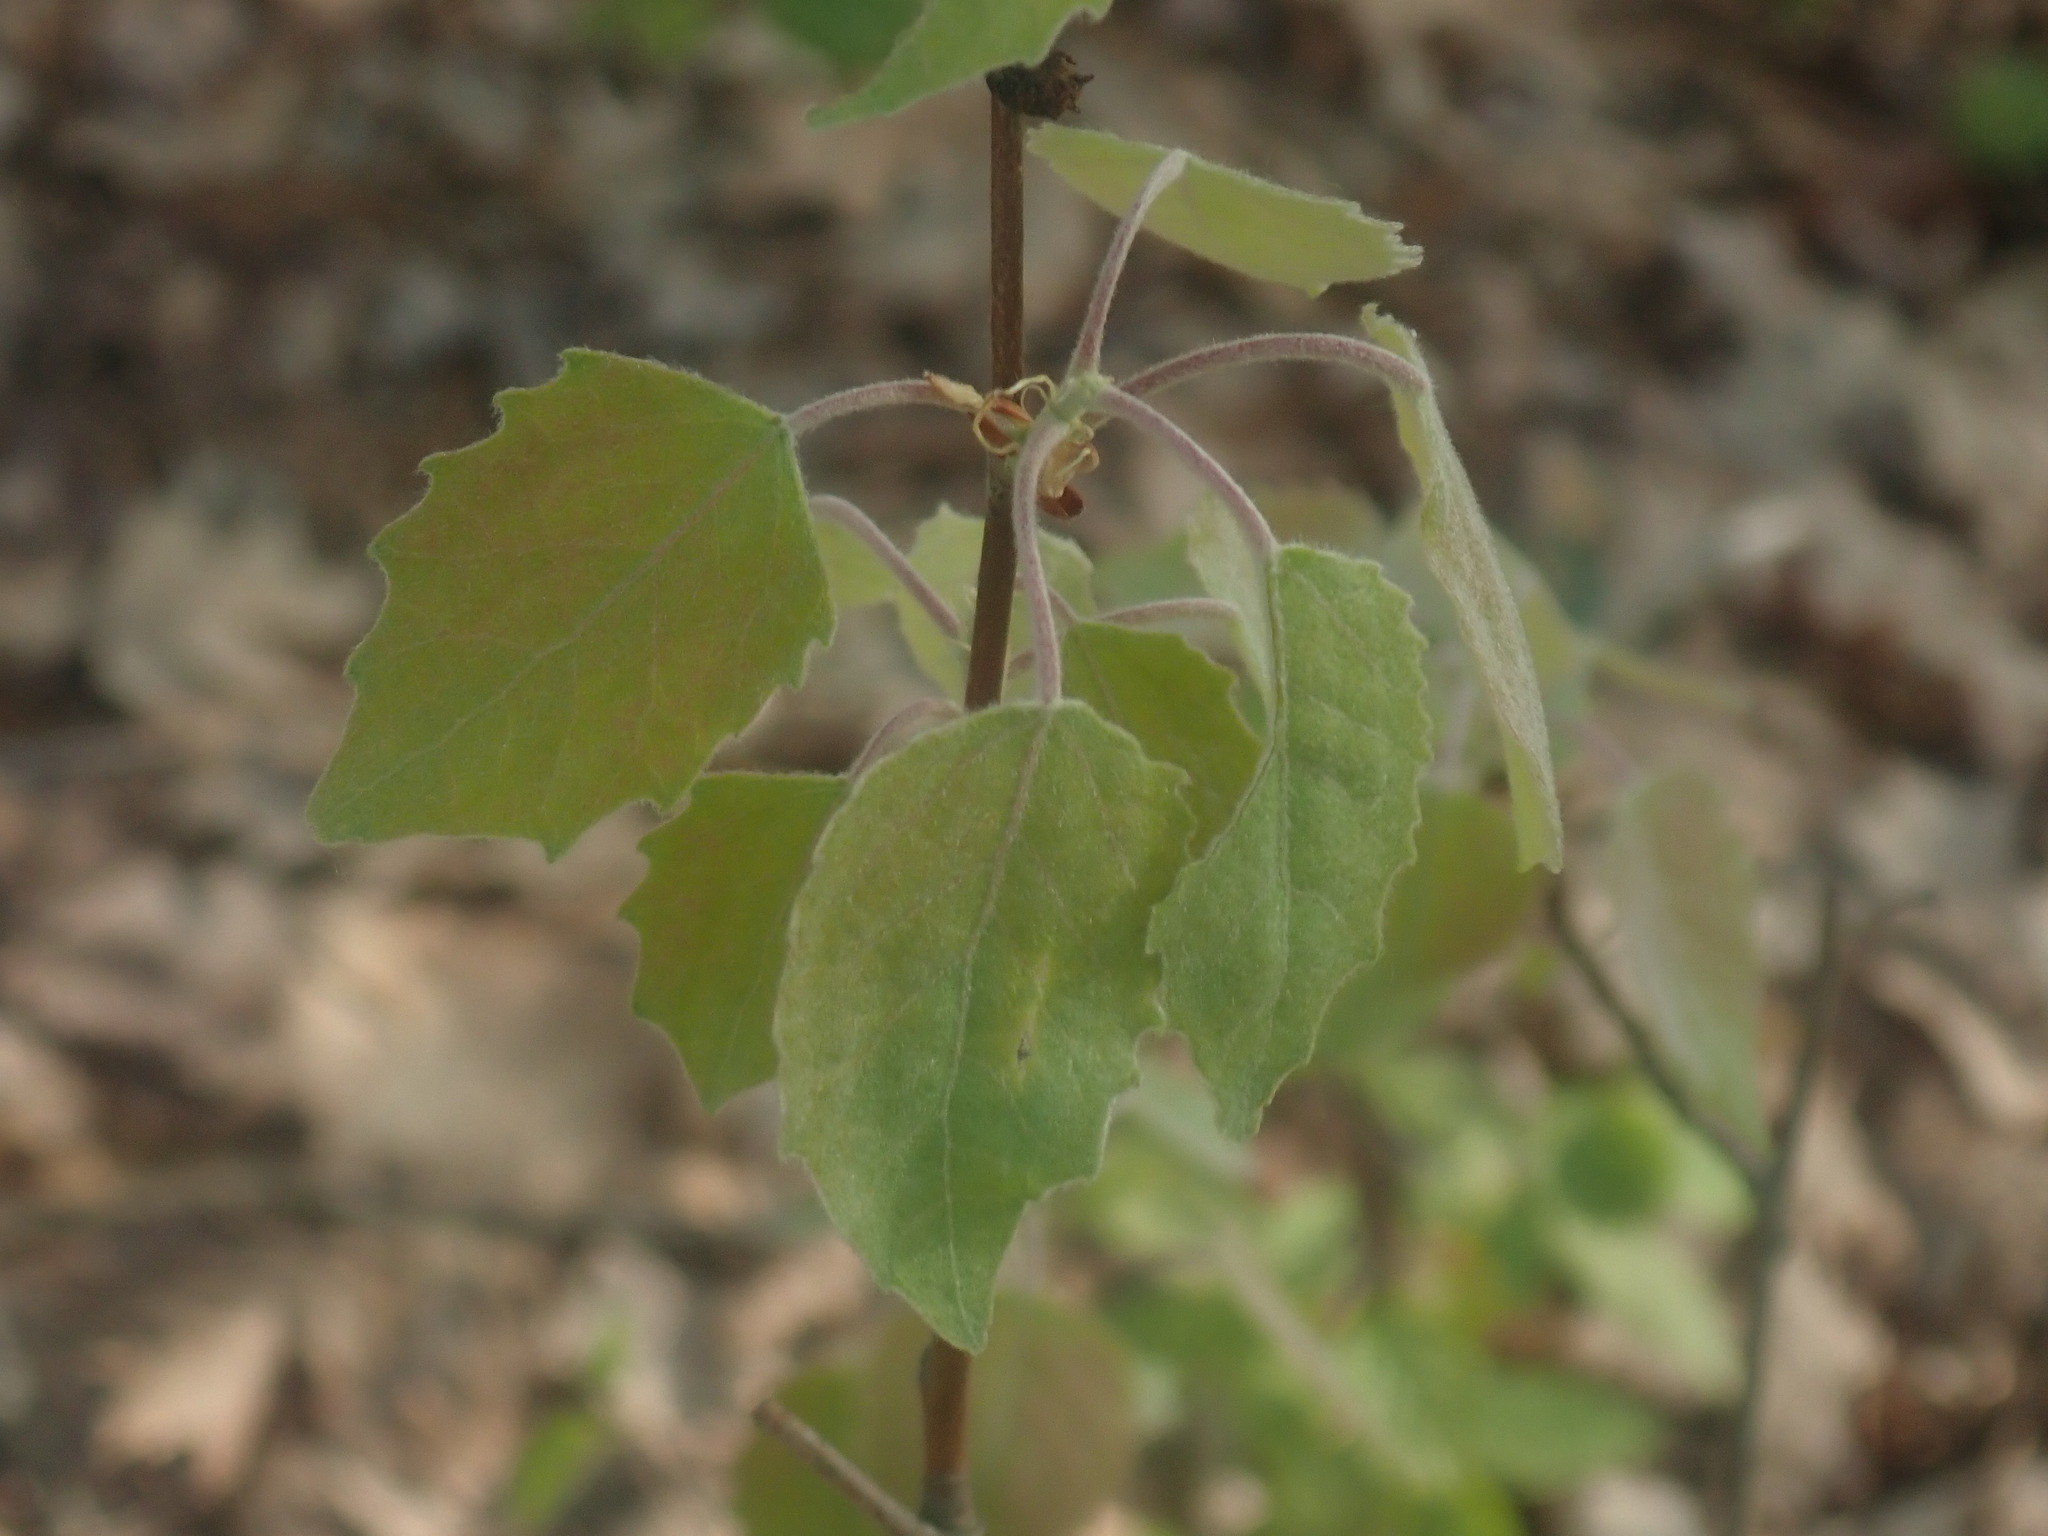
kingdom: Plantae
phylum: Tracheophyta
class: Magnoliopsida
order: Malpighiales
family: Salicaceae
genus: Populus
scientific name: Populus grandidentata
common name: Bigtooth aspen
